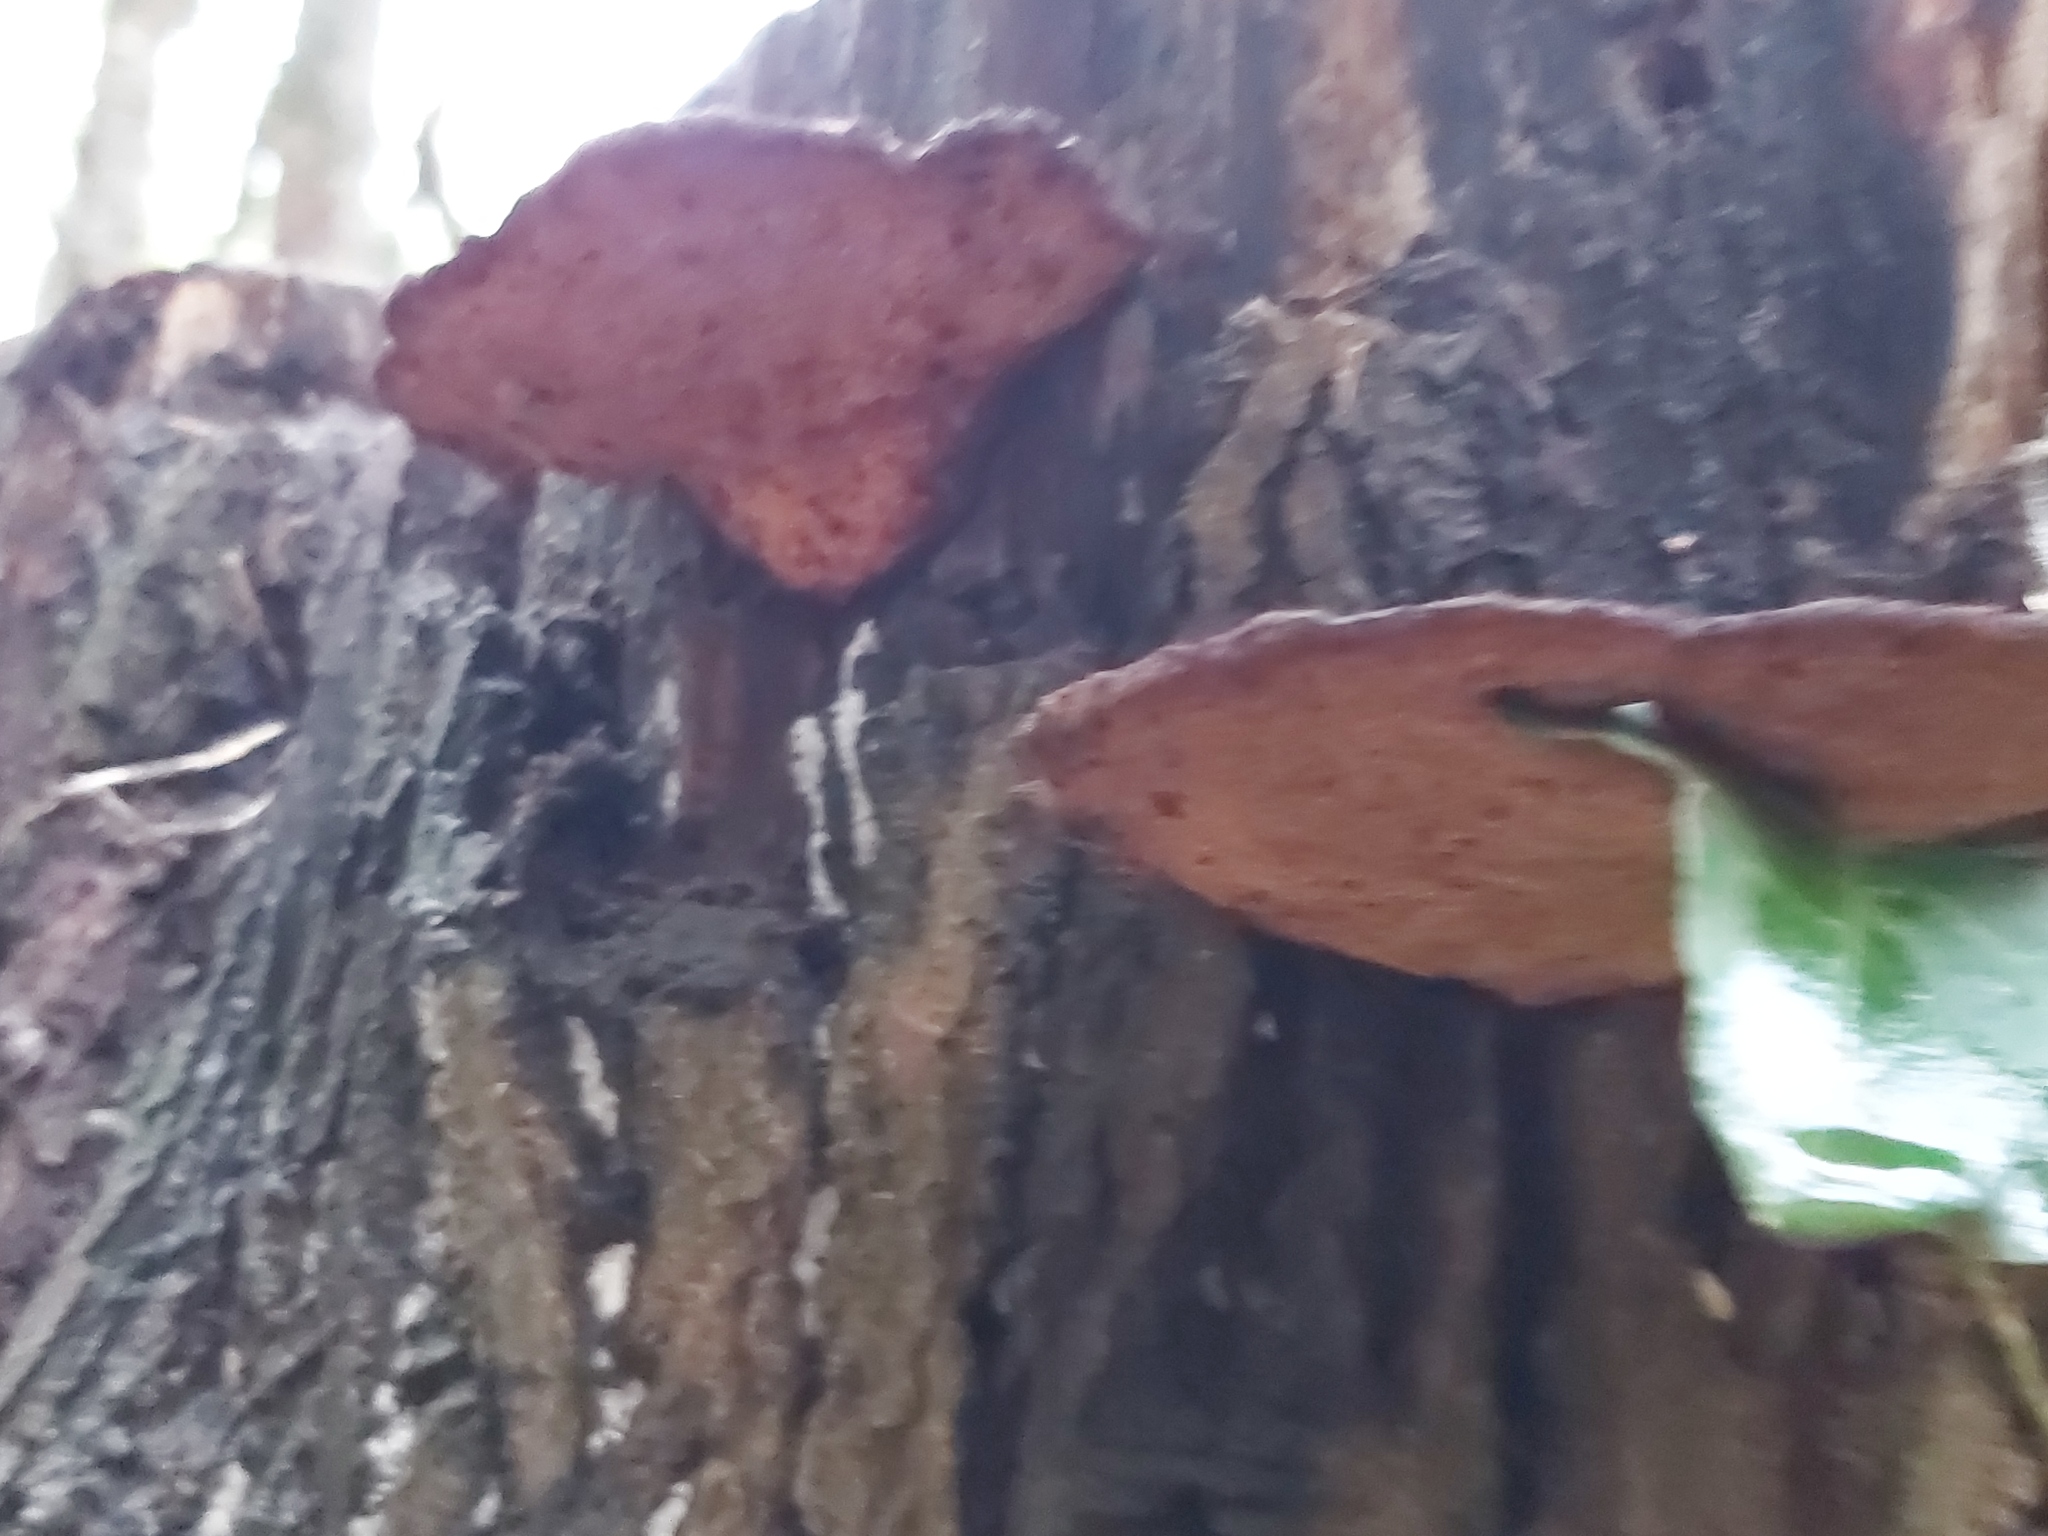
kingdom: Fungi
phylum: Basidiomycota
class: Agaricomycetes
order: Agaricales
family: Fistulinaceae
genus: Fistulina
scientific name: Fistulina hepatica
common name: Beef-steak fungus
